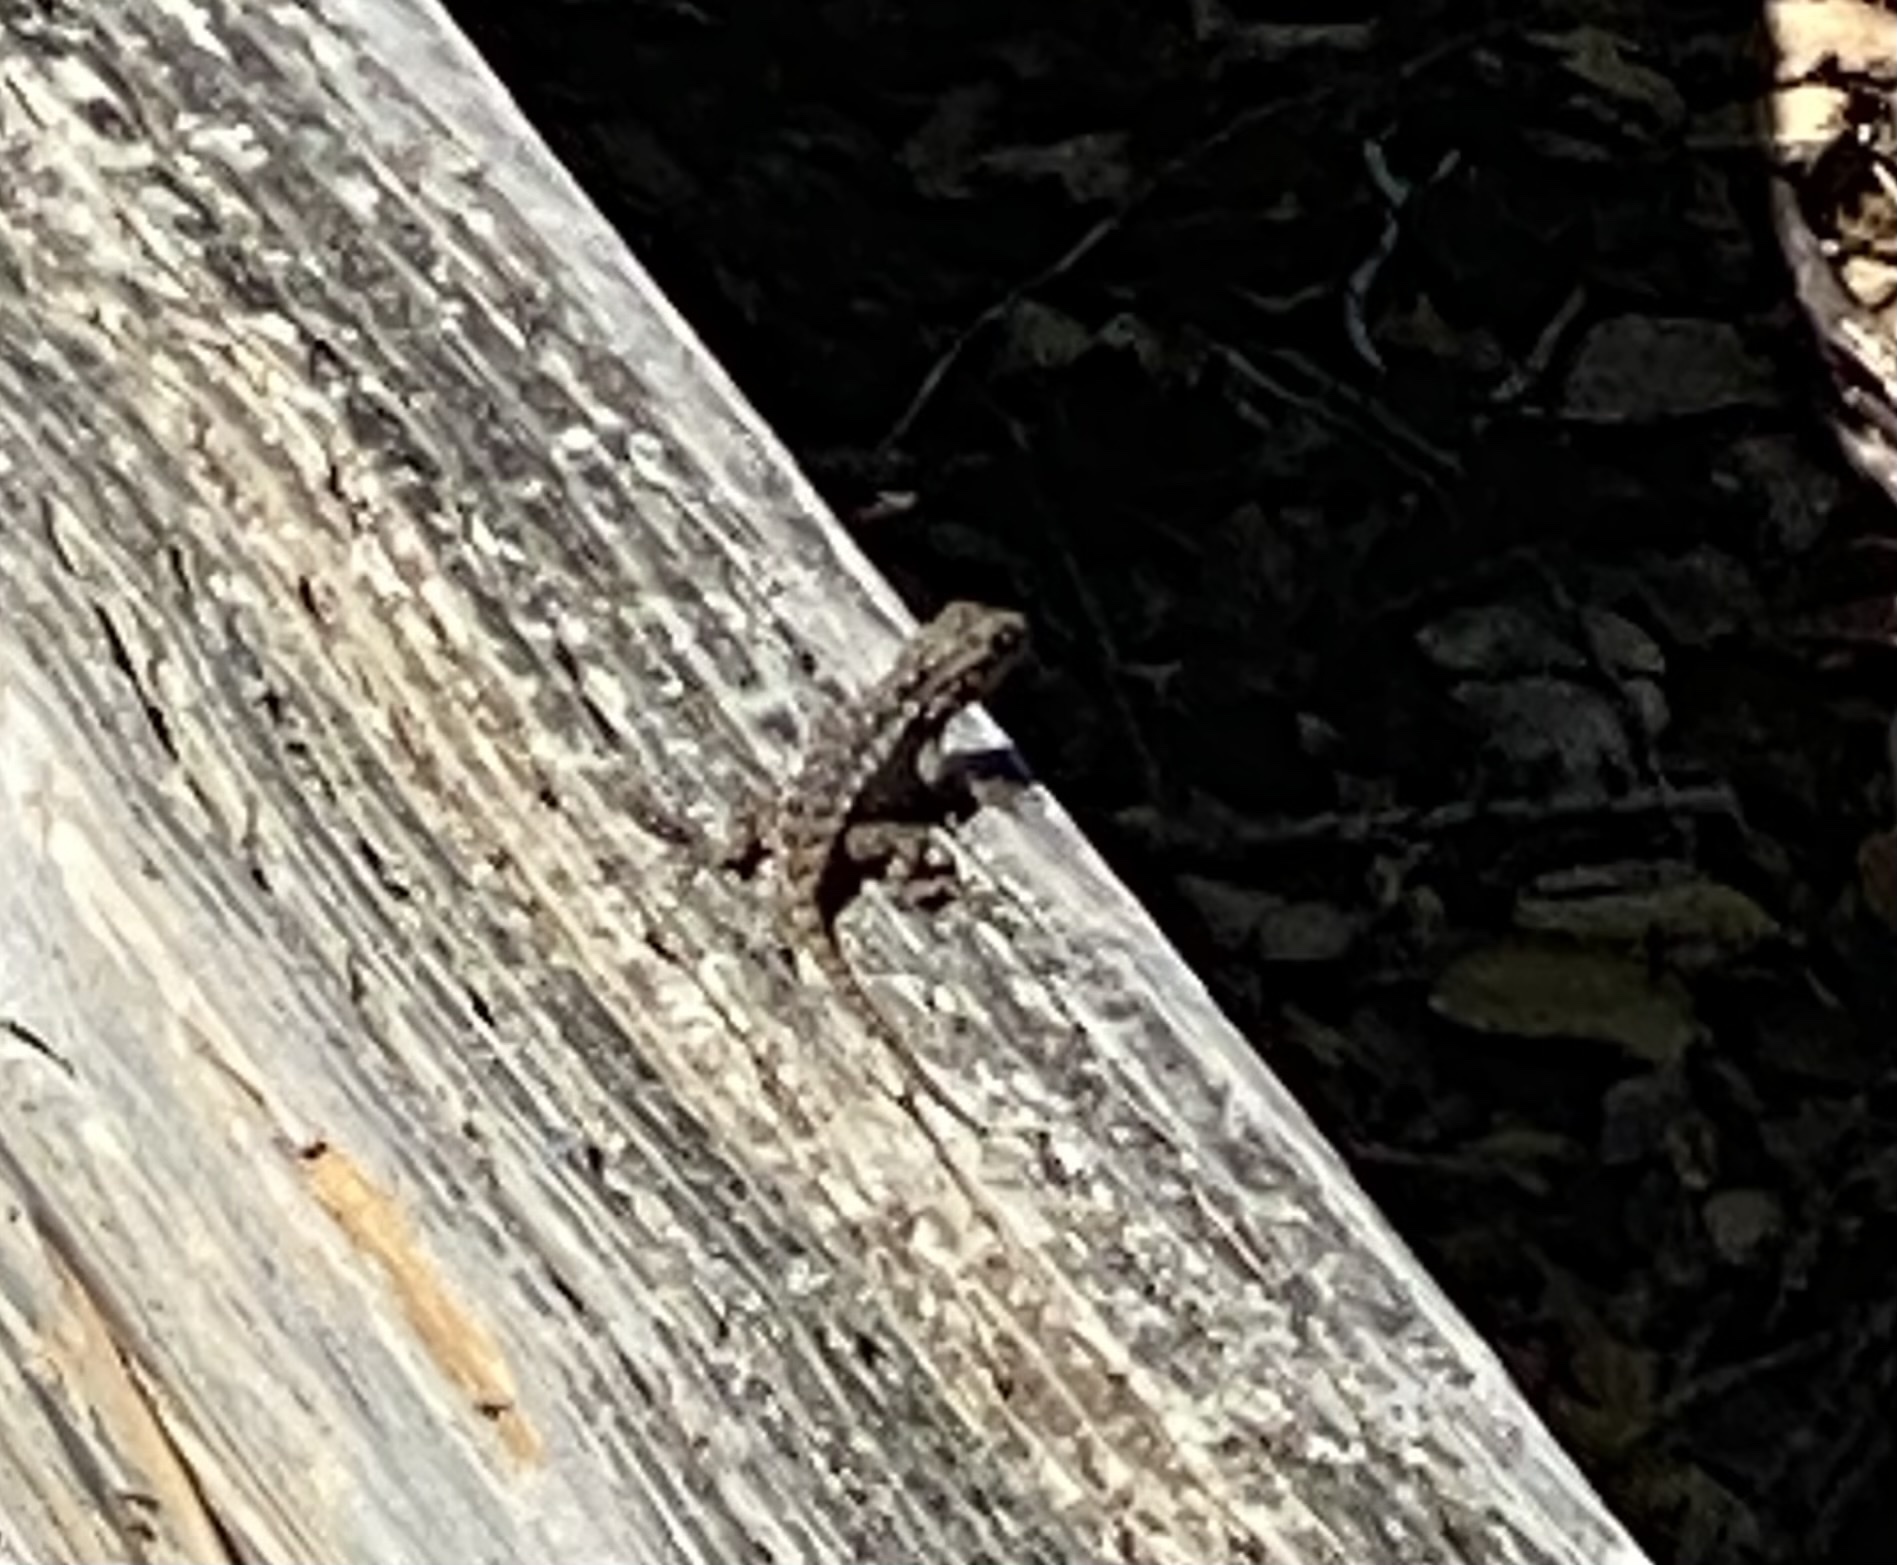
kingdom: Animalia
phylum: Chordata
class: Squamata
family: Phrynosomatidae
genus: Sceloporus
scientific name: Sceloporus occidentalis
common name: Western fence lizard
